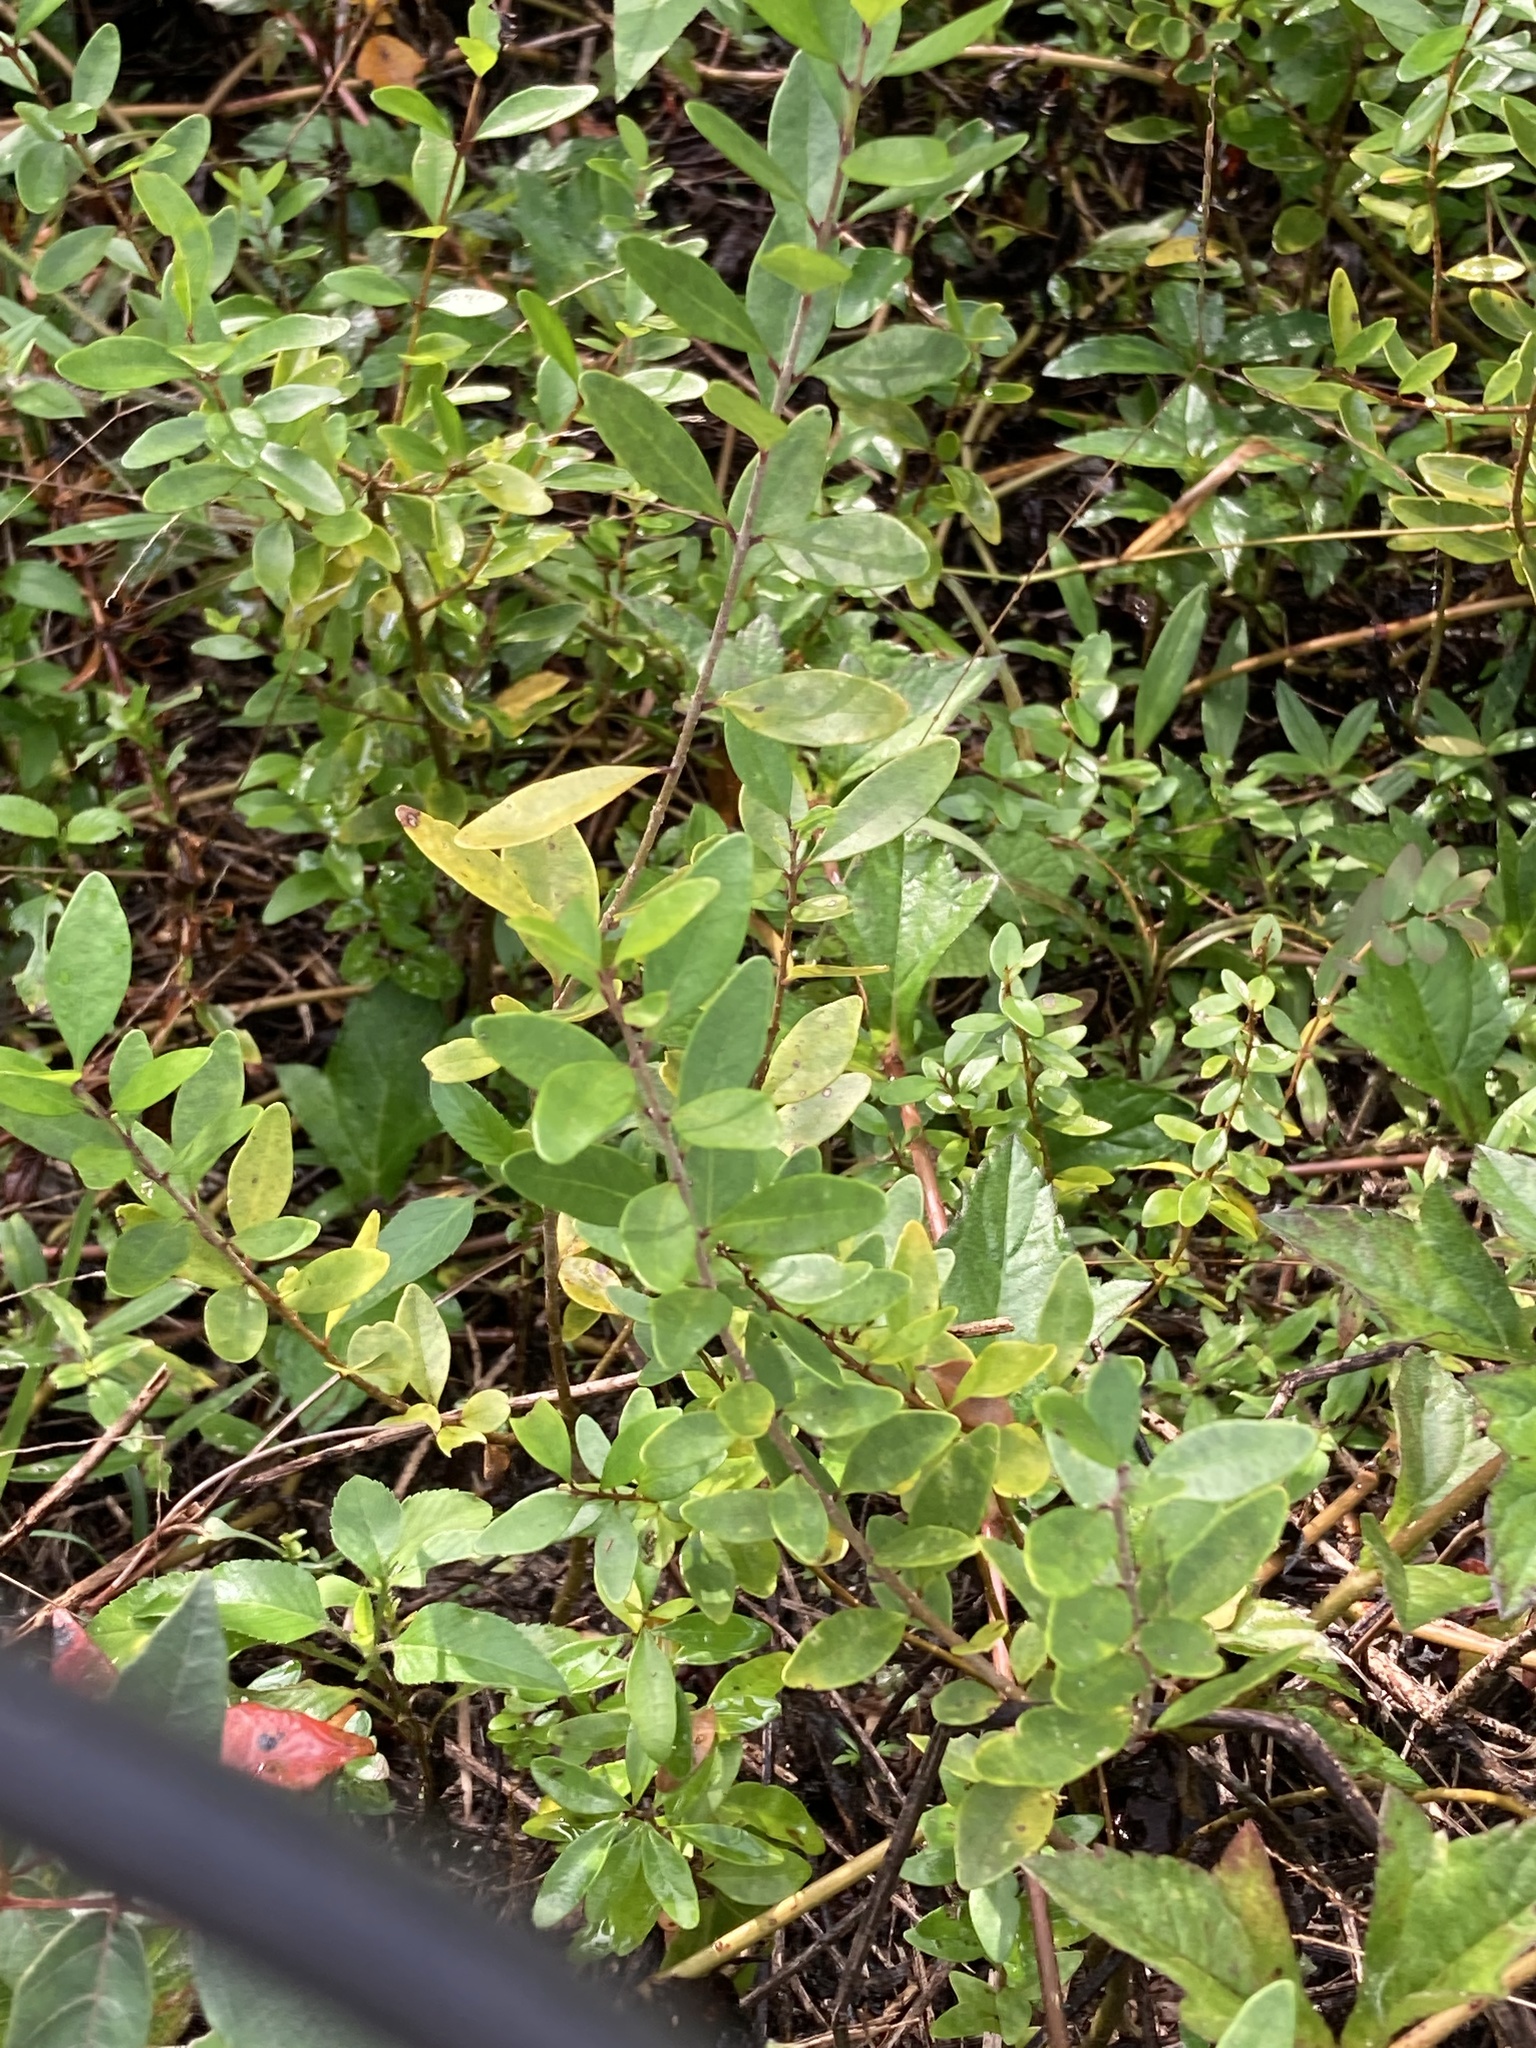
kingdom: Plantae
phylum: Tracheophyta
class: Magnoliopsida
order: Lamiales
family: Oleaceae
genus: Forestiera
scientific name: Forestiera segregata
